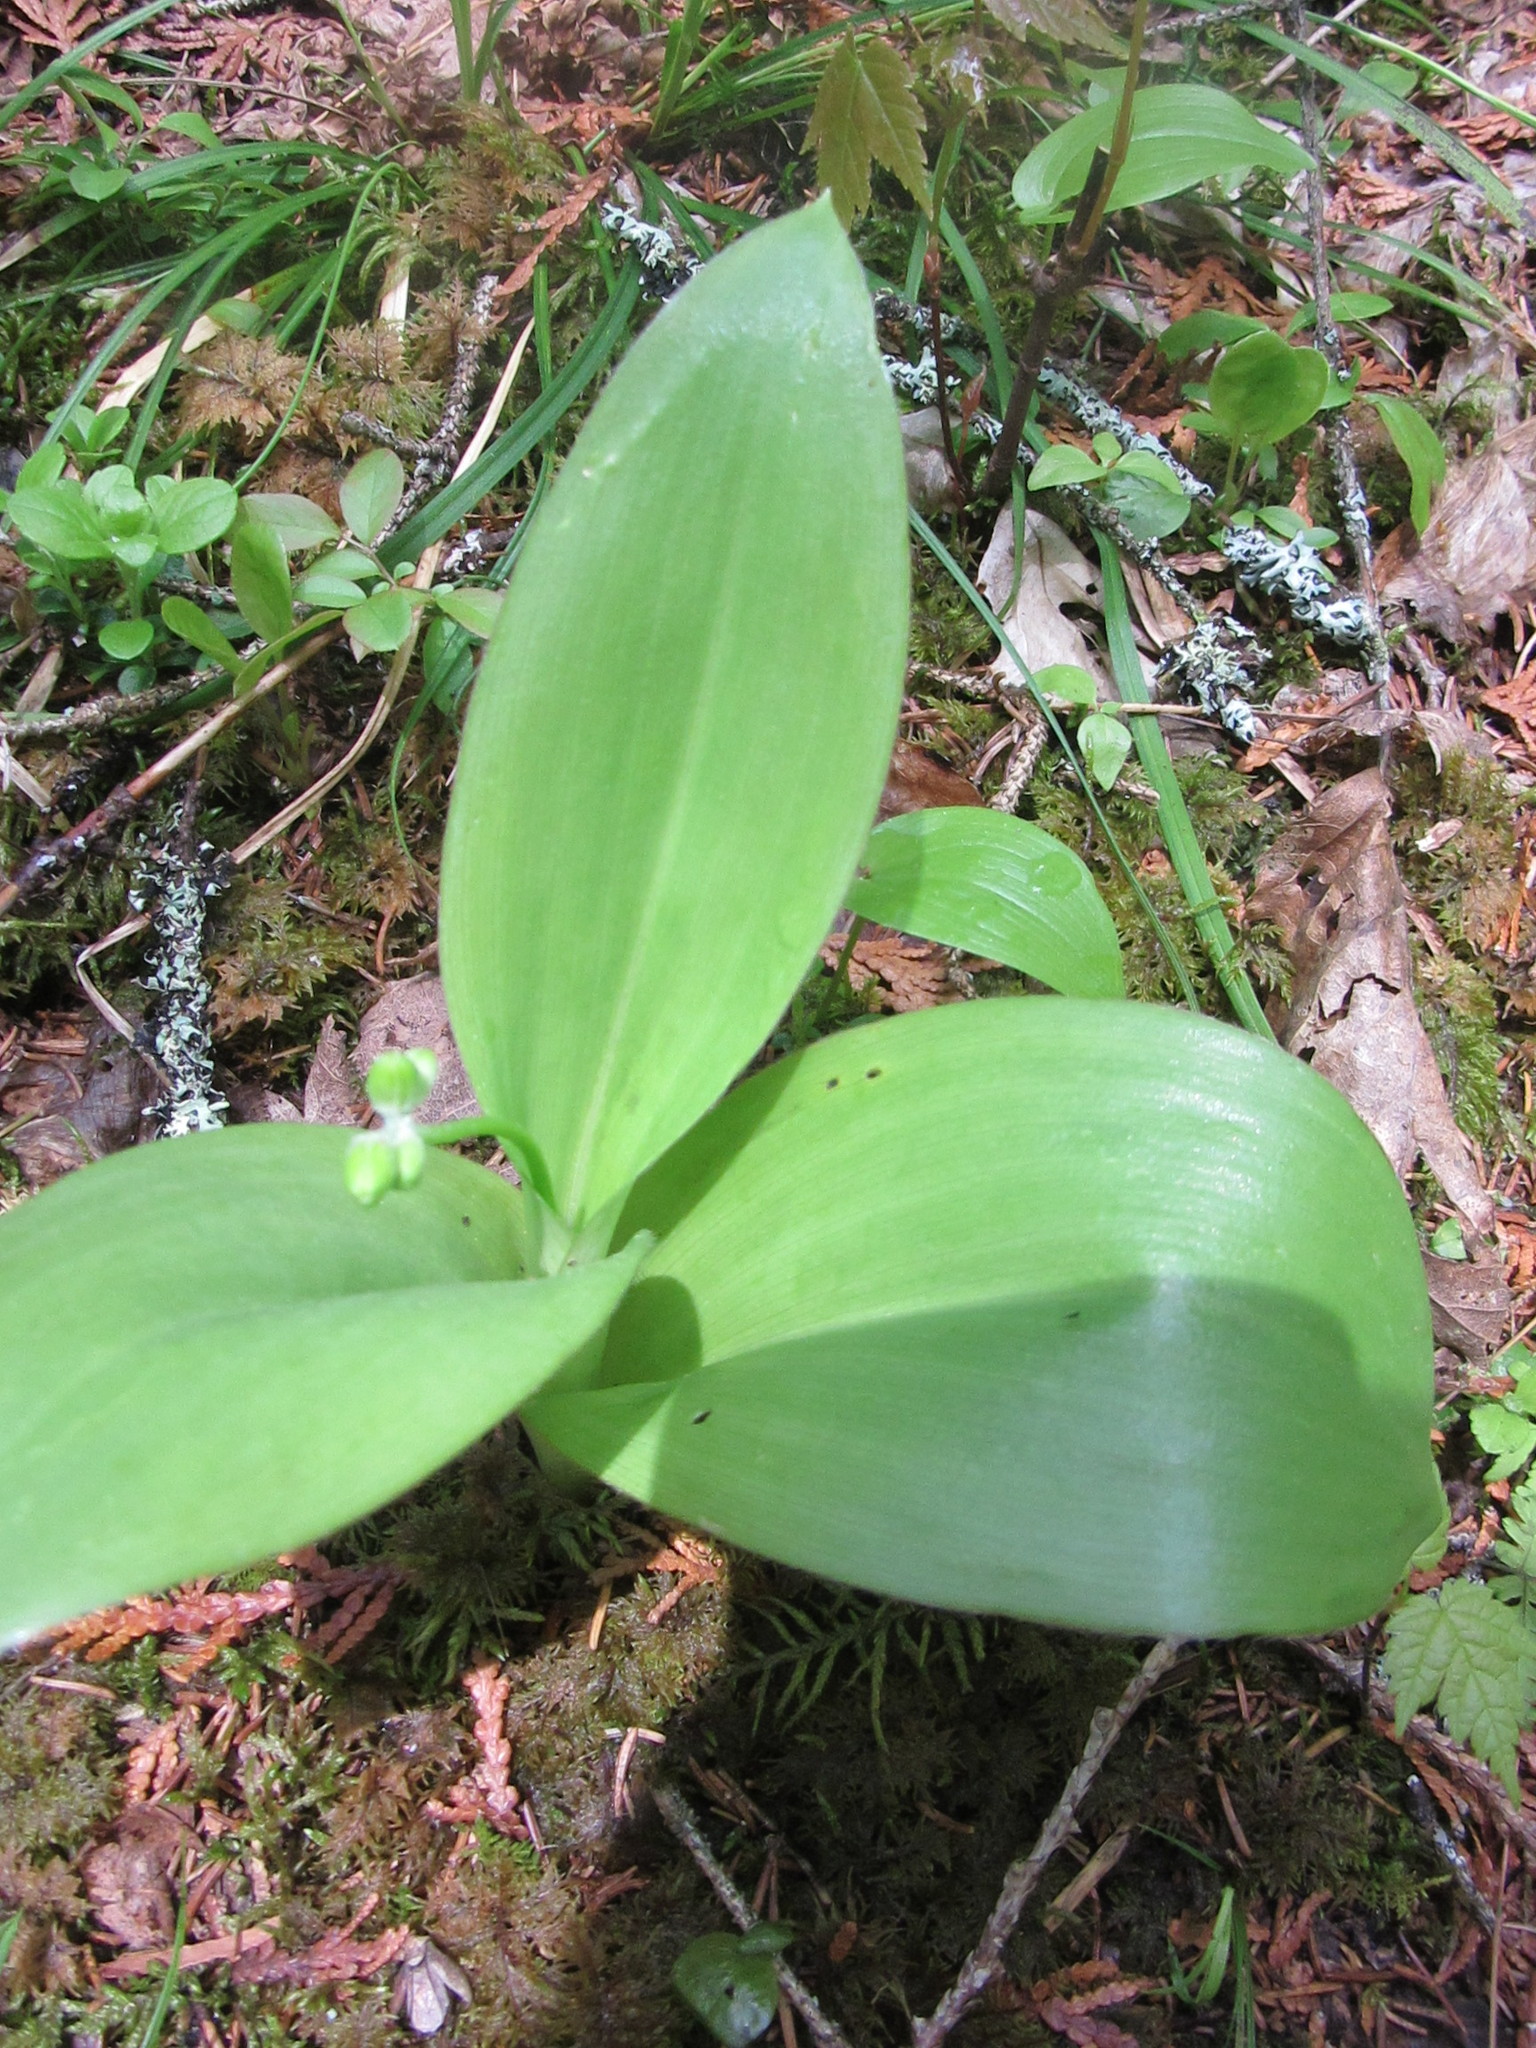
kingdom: Plantae
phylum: Tracheophyta
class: Liliopsida
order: Liliales
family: Liliaceae
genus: Clintonia
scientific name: Clintonia borealis
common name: Yellow clintonia
